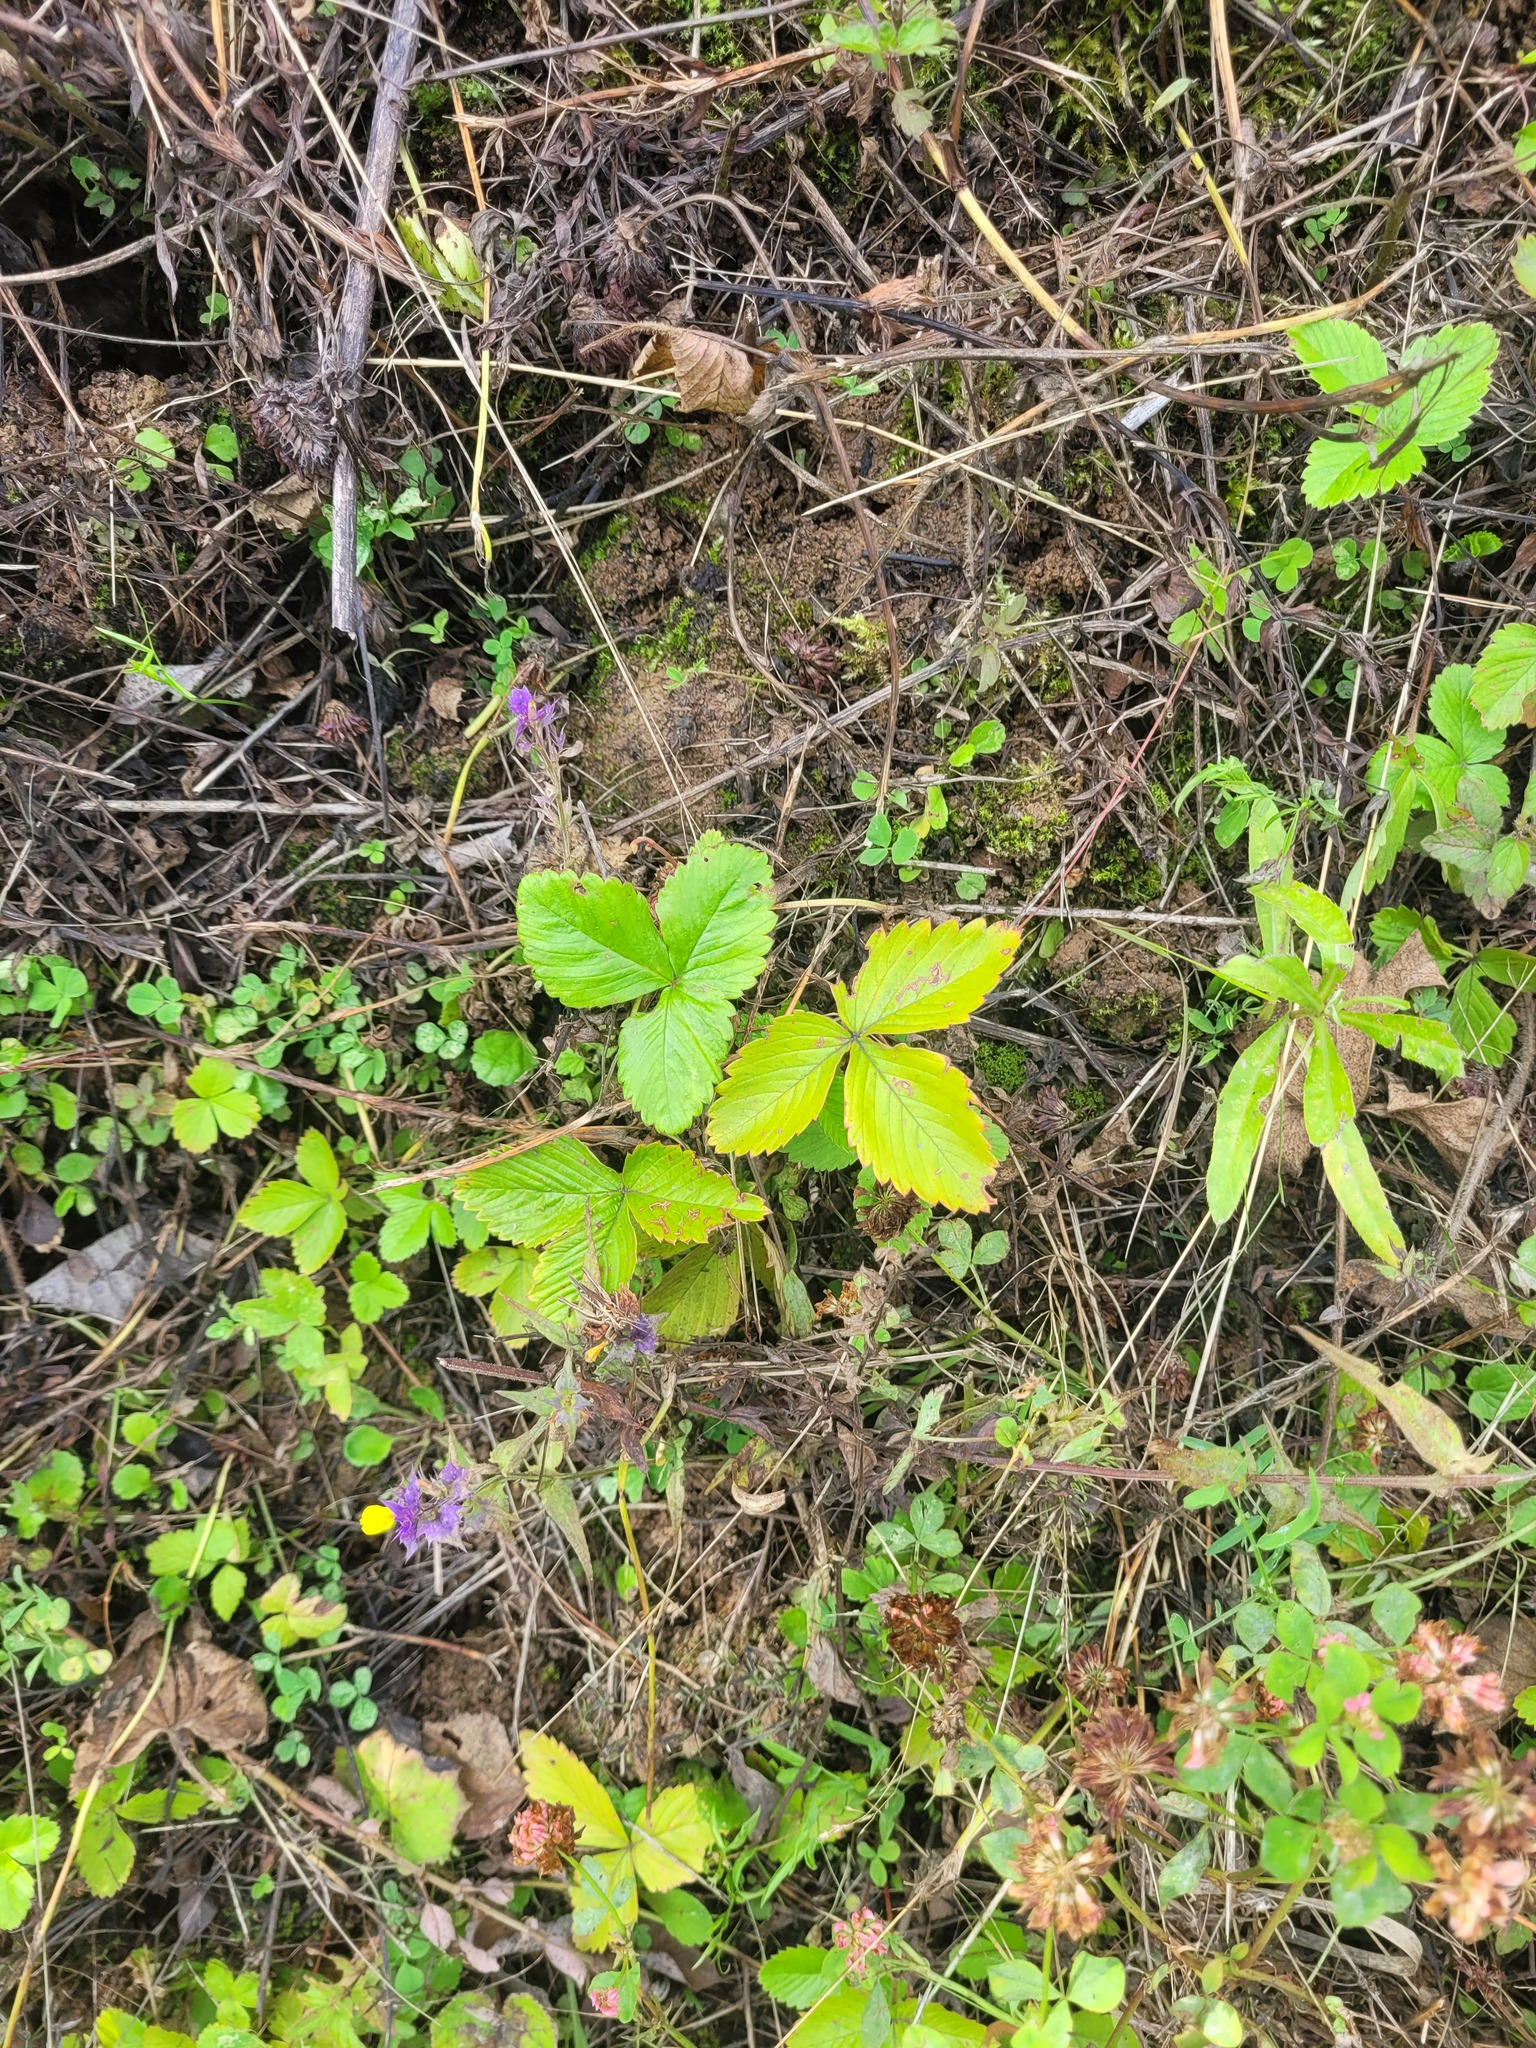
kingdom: Plantae
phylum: Tracheophyta
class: Magnoliopsida
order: Rosales
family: Rosaceae
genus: Fragaria
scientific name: Fragaria vesca
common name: Wild strawberry
